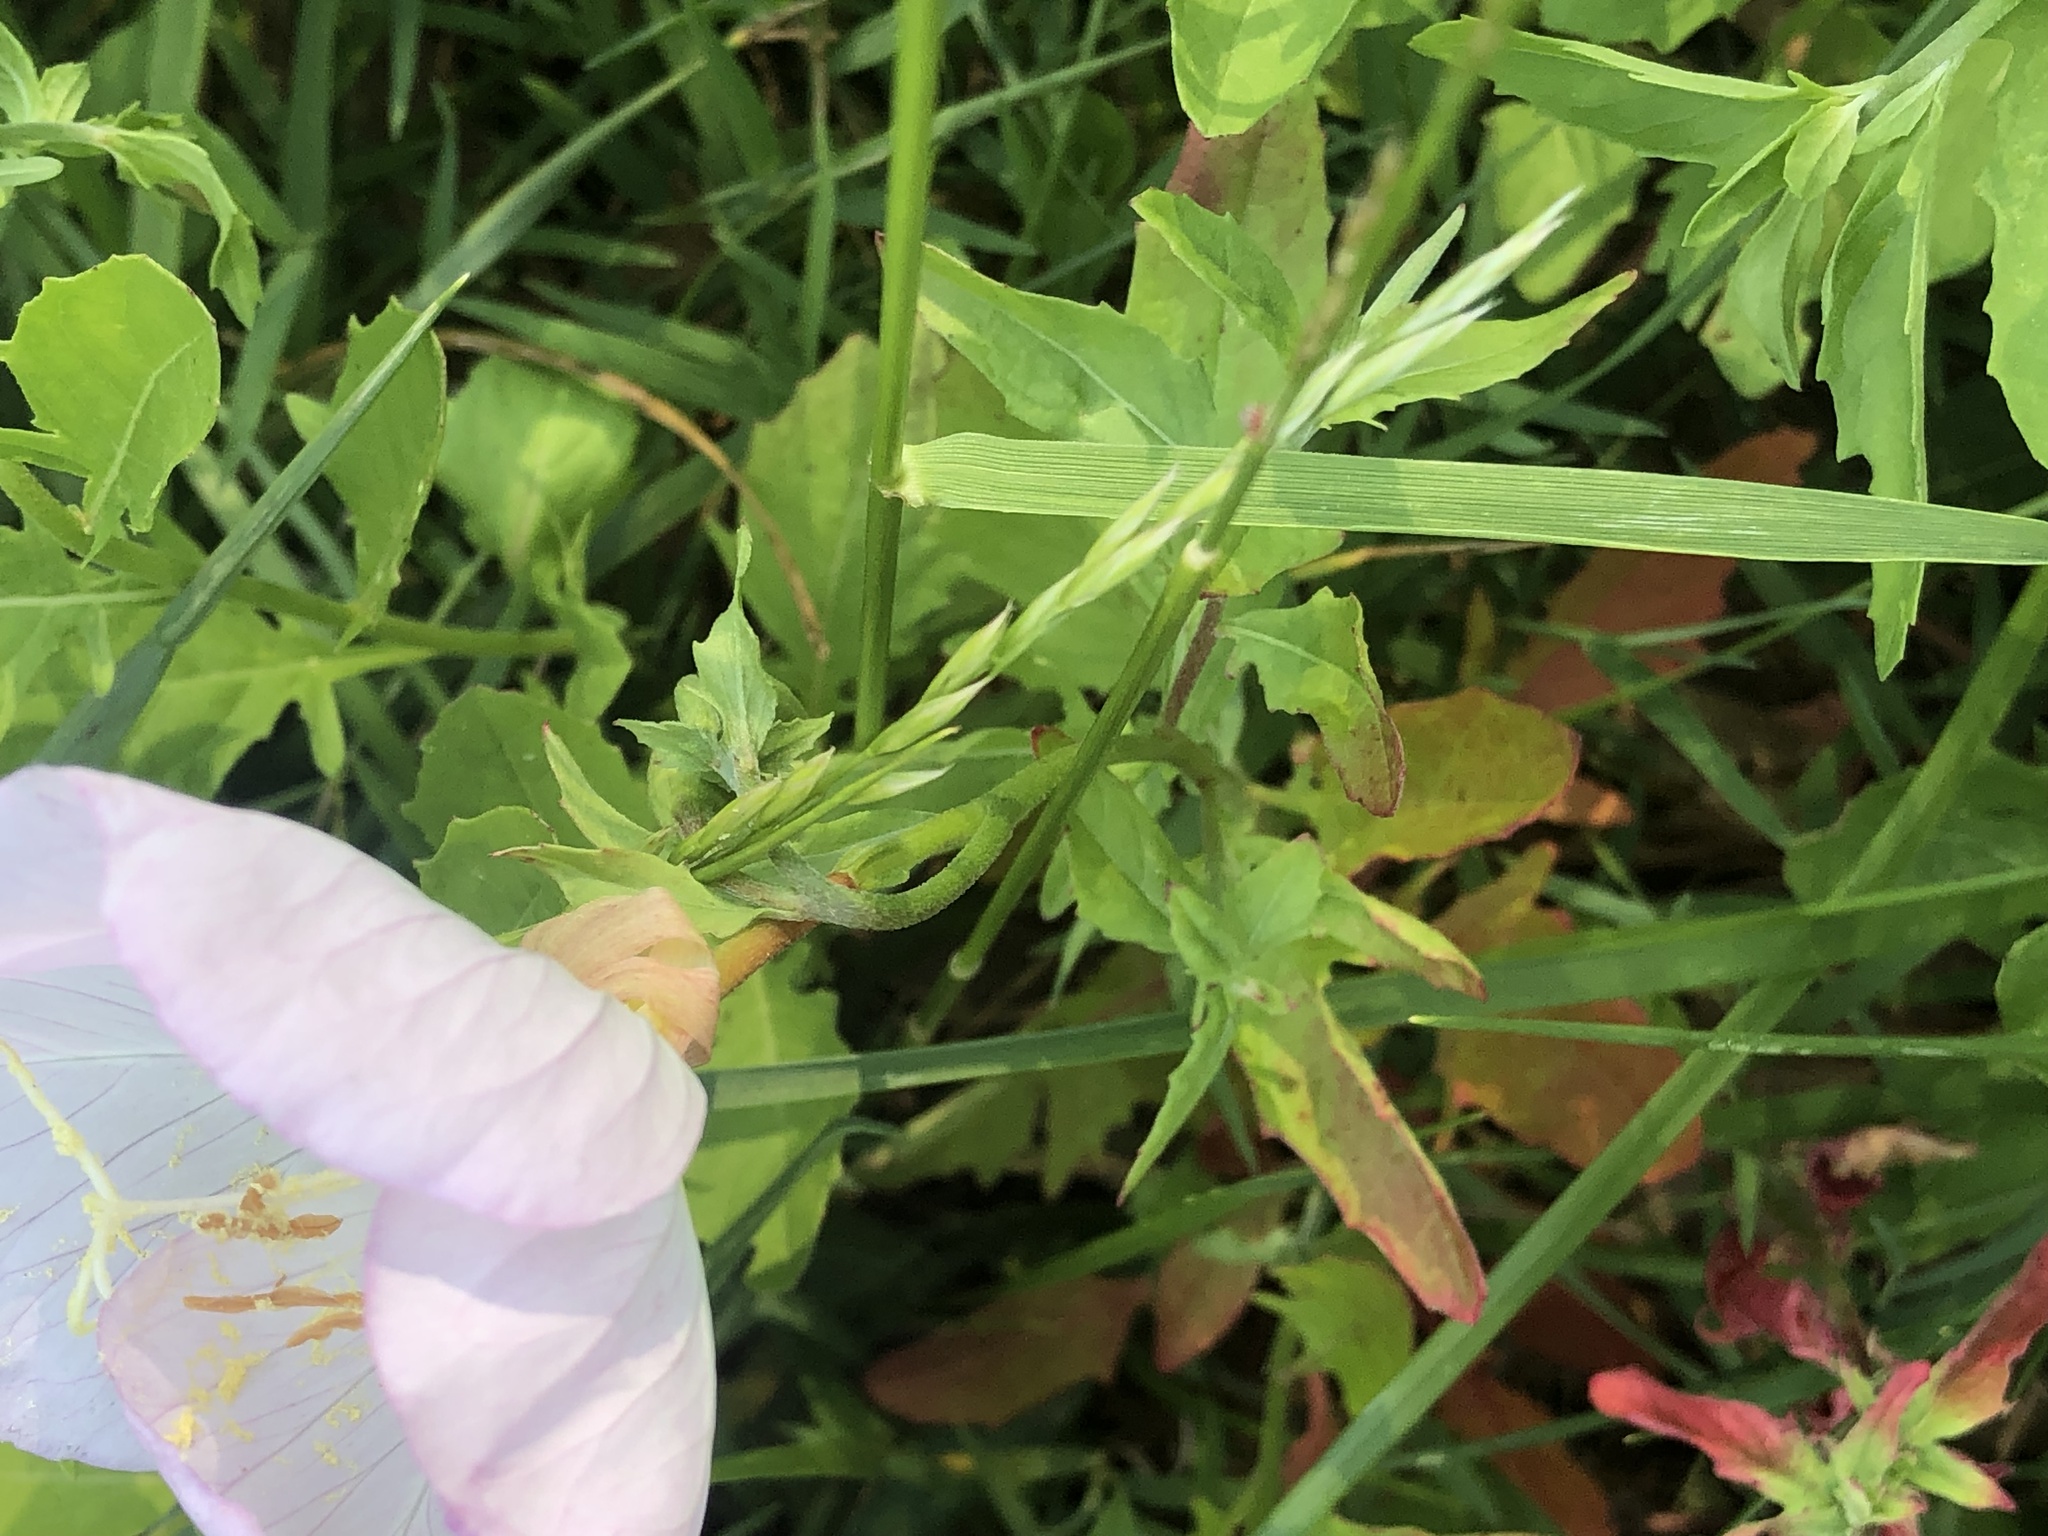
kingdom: Plantae
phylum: Tracheophyta
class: Magnoliopsida
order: Myrtales
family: Onagraceae
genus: Oenothera
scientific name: Oenothera speciosa
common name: White evening-primrose
